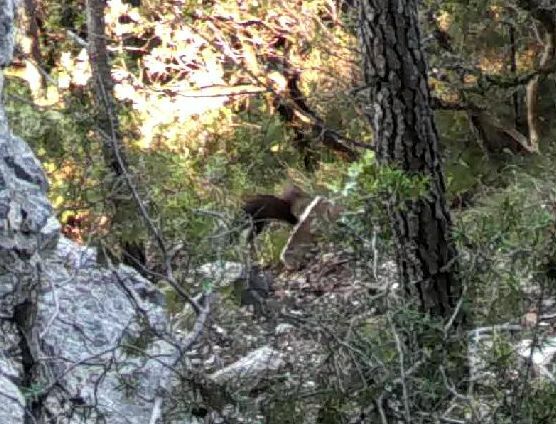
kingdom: Animalia
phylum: Chordata
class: Mammalia
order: Rodentia
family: Sciuridae
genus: Sciurus
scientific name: Sciurus vulgaris
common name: Eurasian red squirrel
